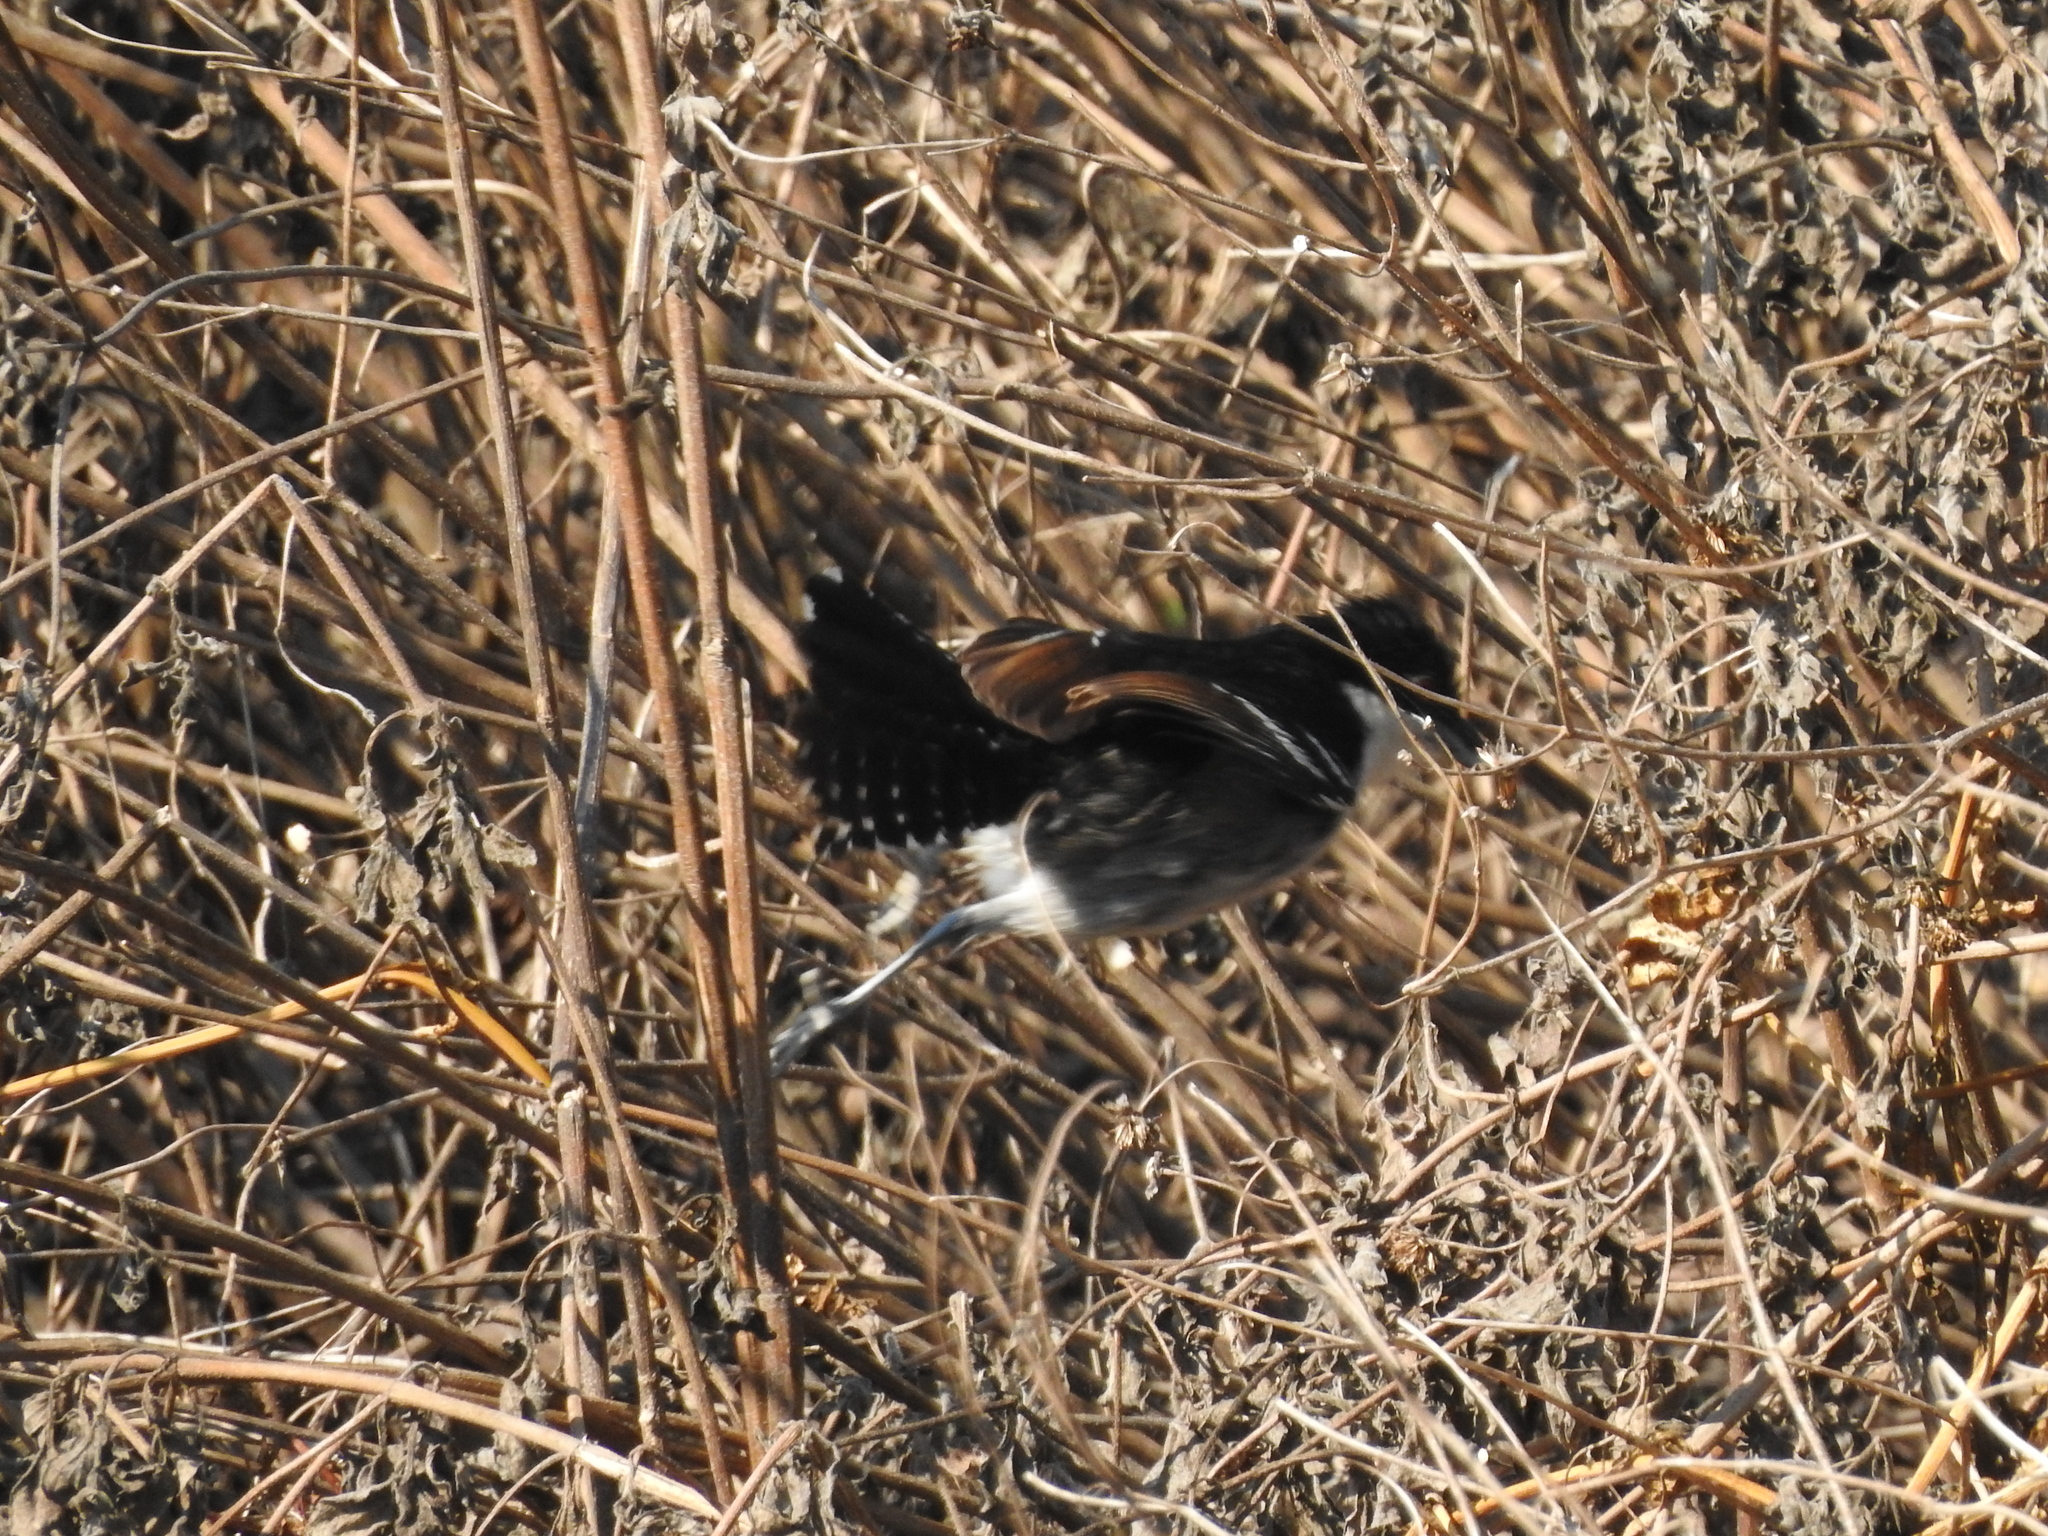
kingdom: Animalia
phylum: Chordata
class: Aves
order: Passeriformes
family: Thamnophilidae
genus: Taraba
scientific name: Taraba major
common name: Great antshrike
